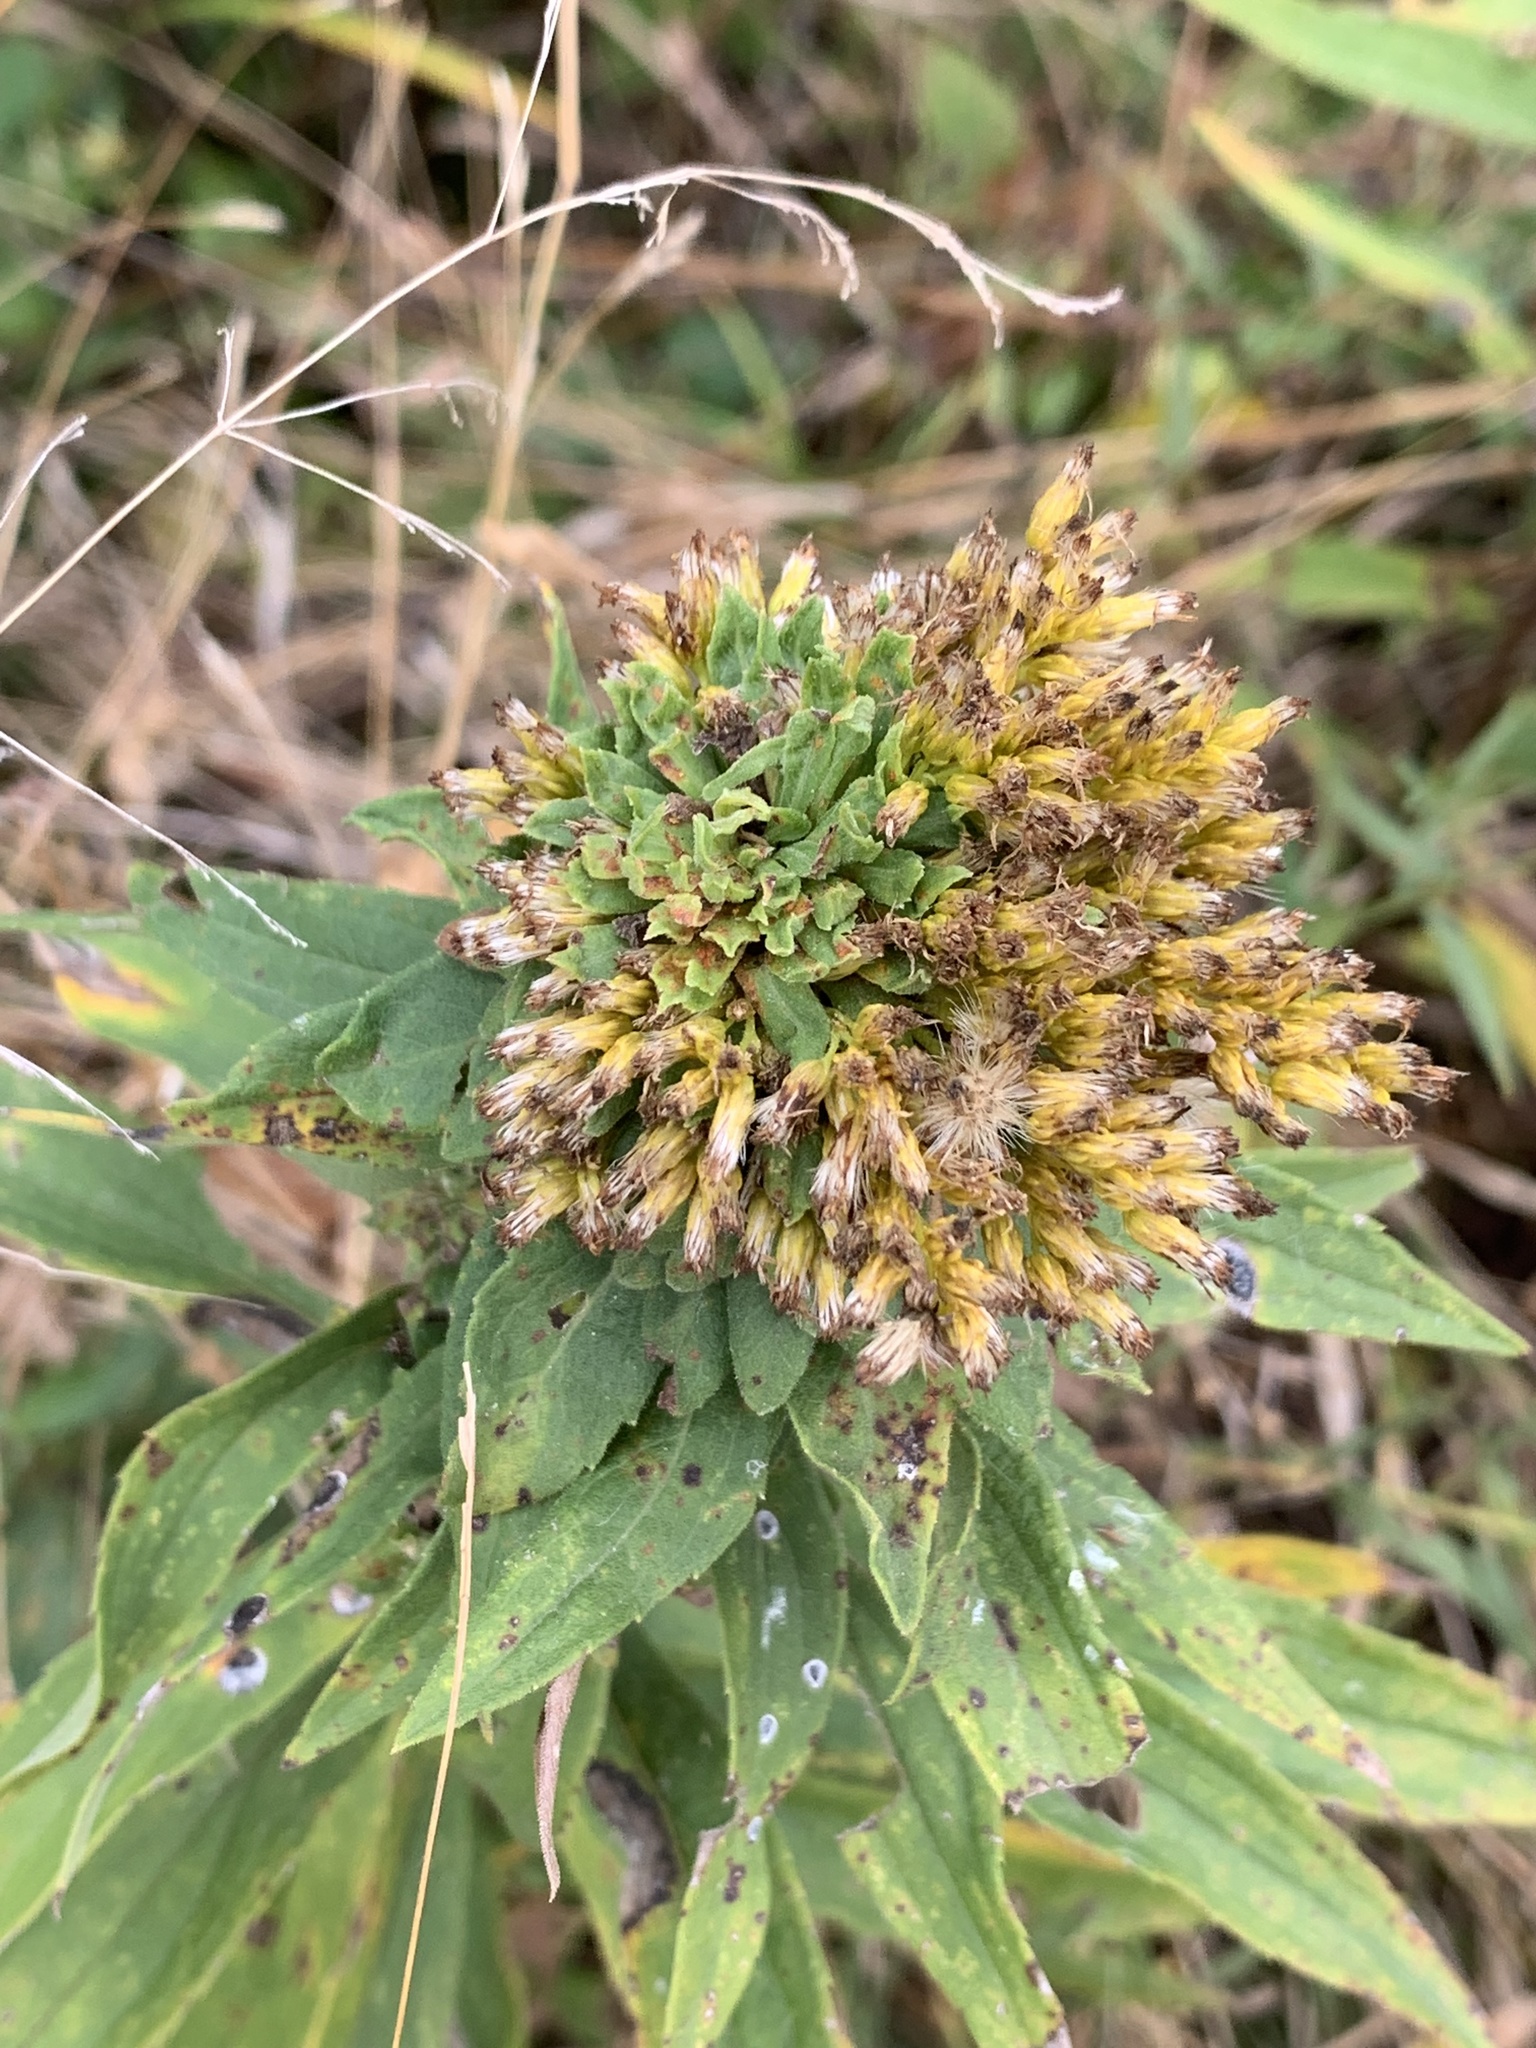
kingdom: Animalia
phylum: Arthropoda
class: Insecta
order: Diptera
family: Tephritidae
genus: Procecidochares
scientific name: Procecidochares atra
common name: Goldenrod brussels sprout gall fly
